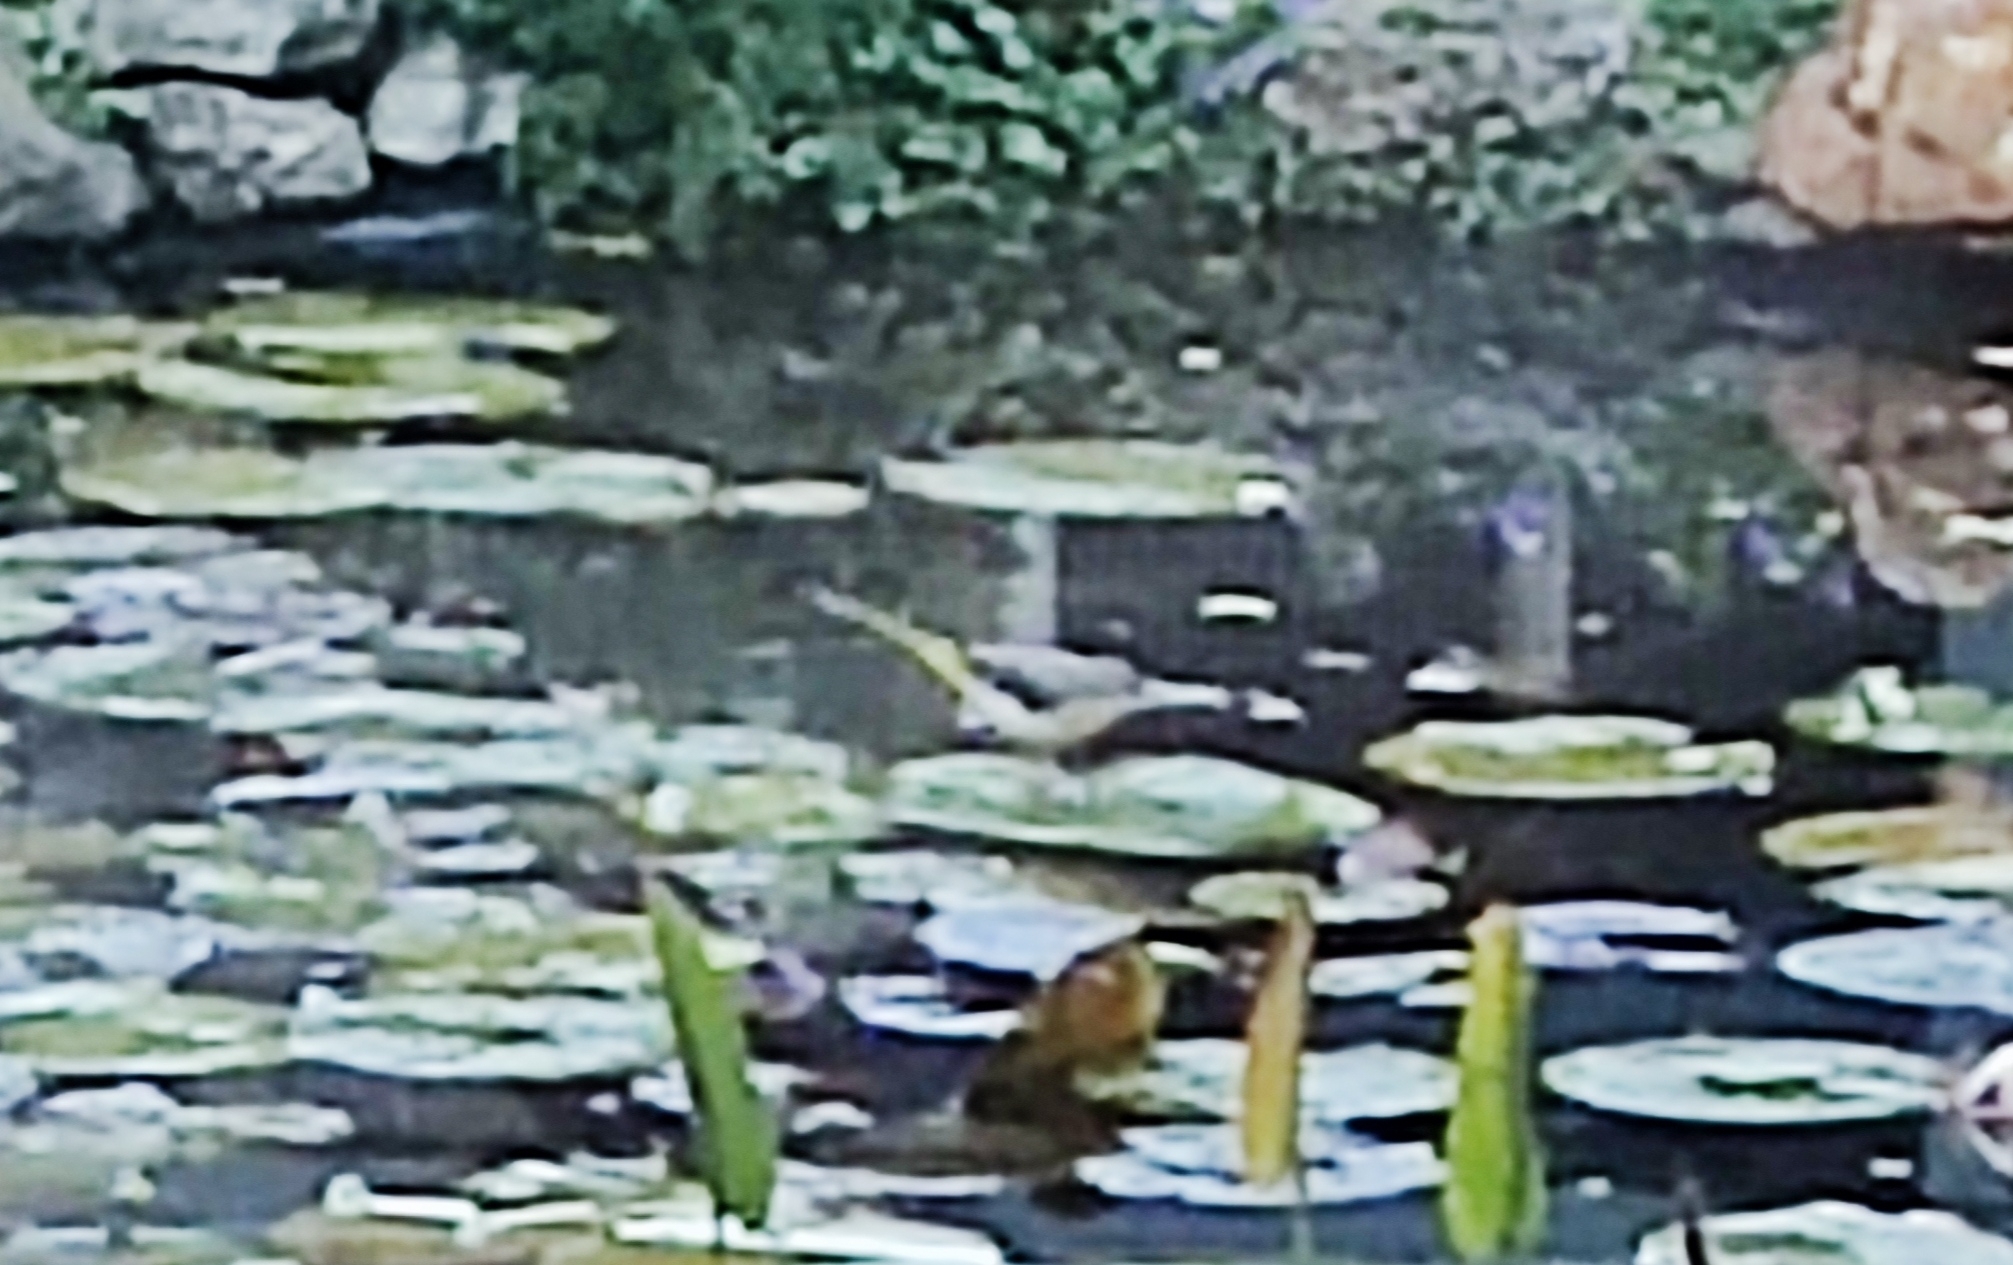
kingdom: Animalia
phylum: Chordata
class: Aves
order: Passeriformes
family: Motacillidae
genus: Motacilla
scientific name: Motacilla cinerea
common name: Grey wagtail
